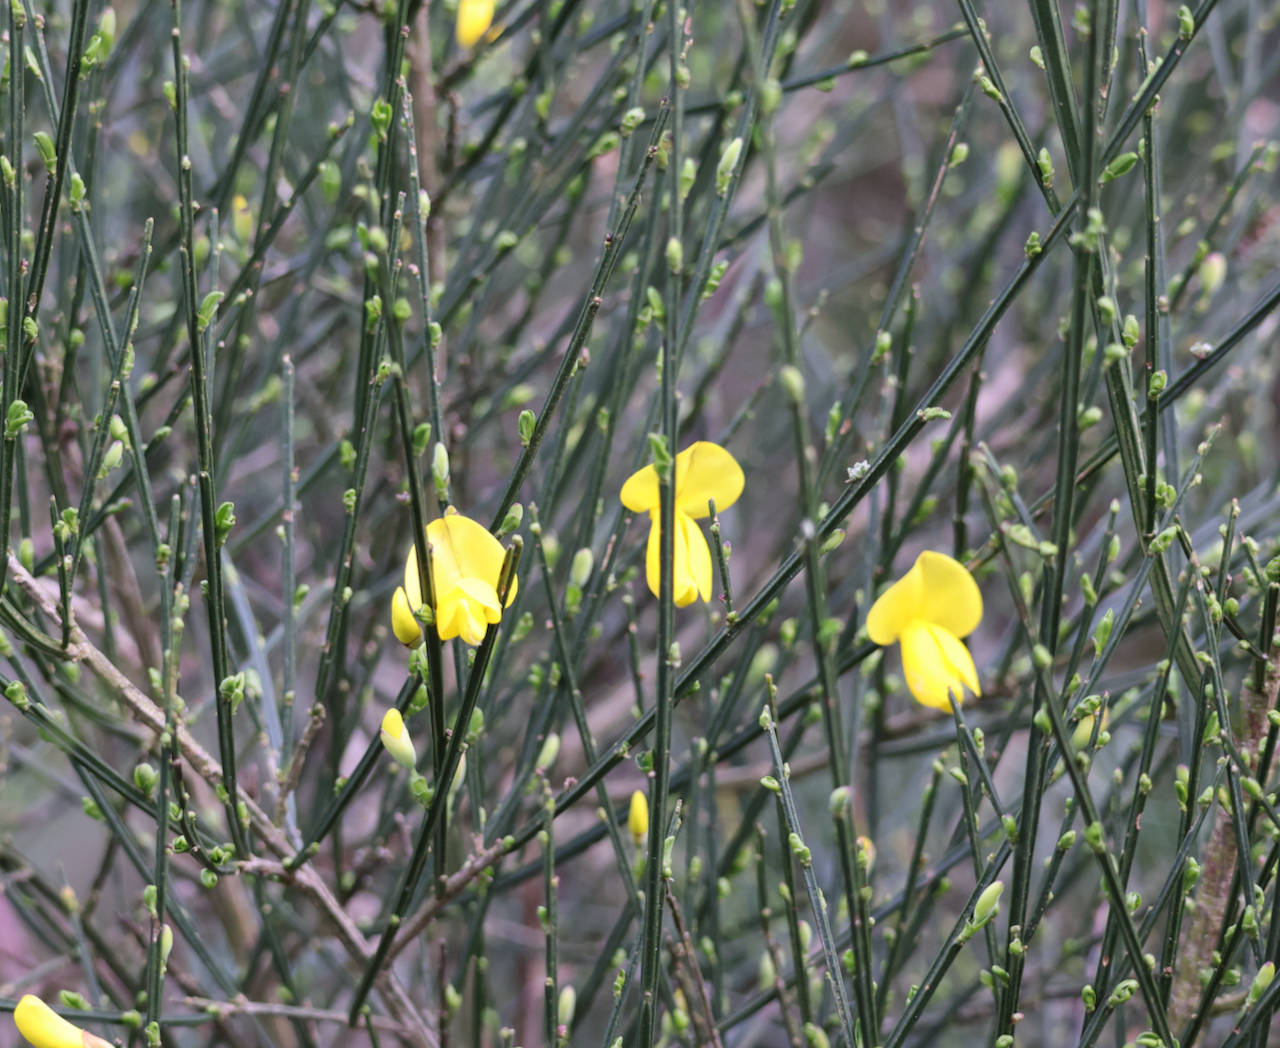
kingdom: Plantae
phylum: Tracheophyta
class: Magnoliopsida
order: Fabales
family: Fabaceae
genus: Cytisus
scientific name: Cytisus scoparius
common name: Scotch broom
